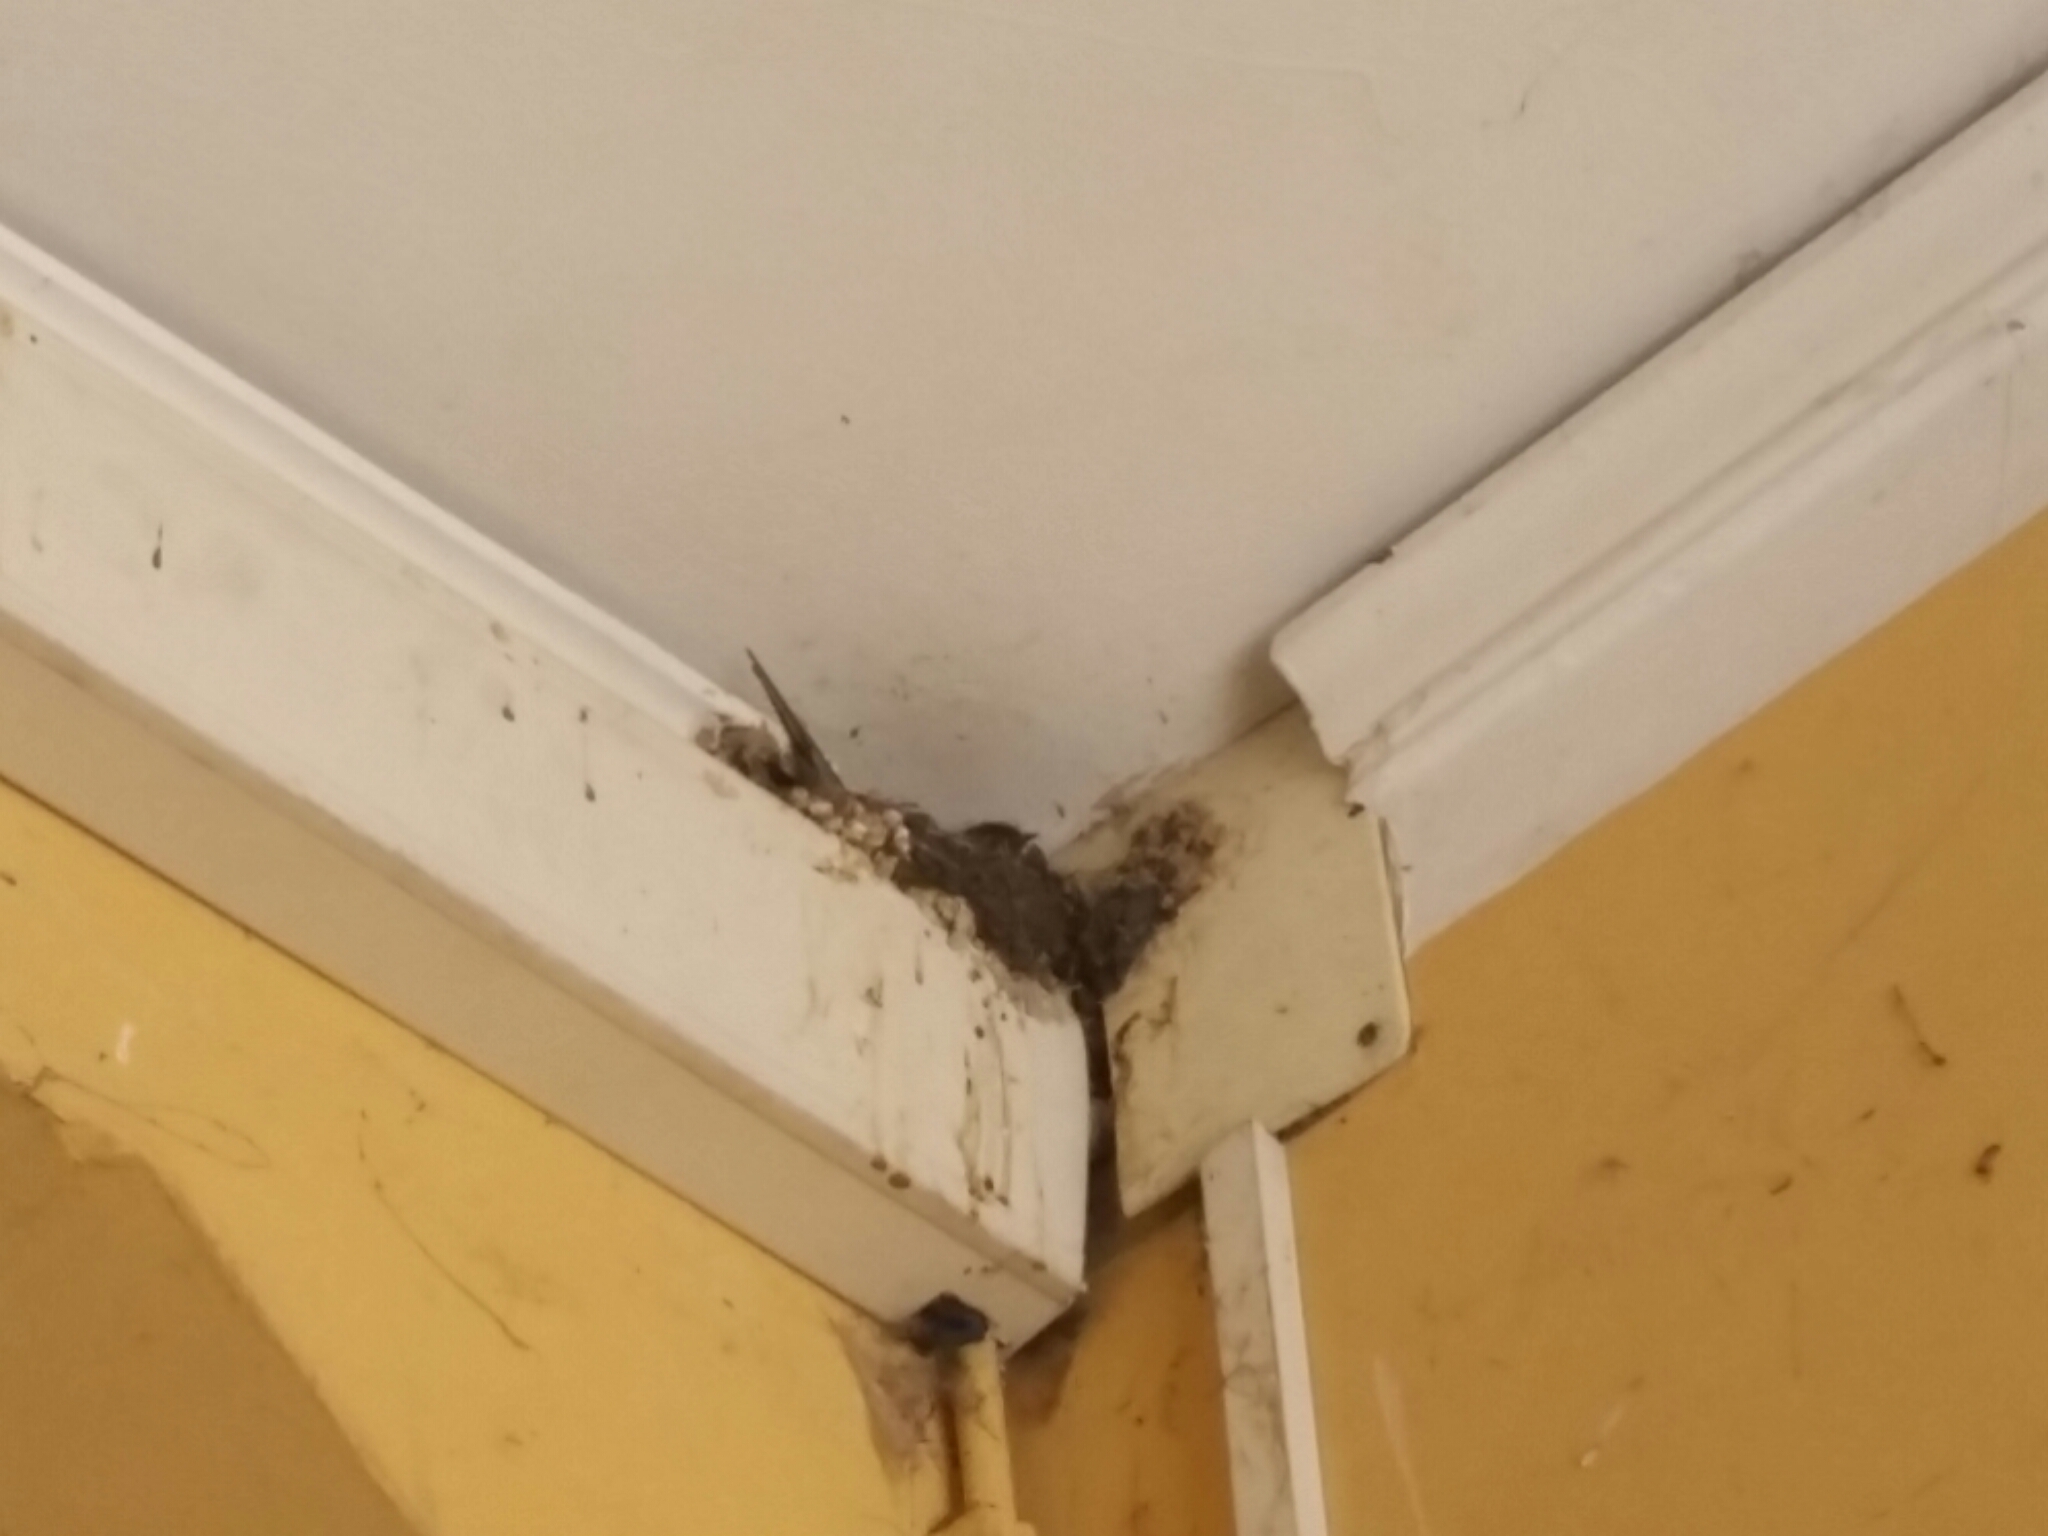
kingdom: Animalia
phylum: Chordata
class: Aves
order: Passeriformes
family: Hirundinidae
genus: Hirundo
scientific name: Hirundo rustica
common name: Barn swallow
